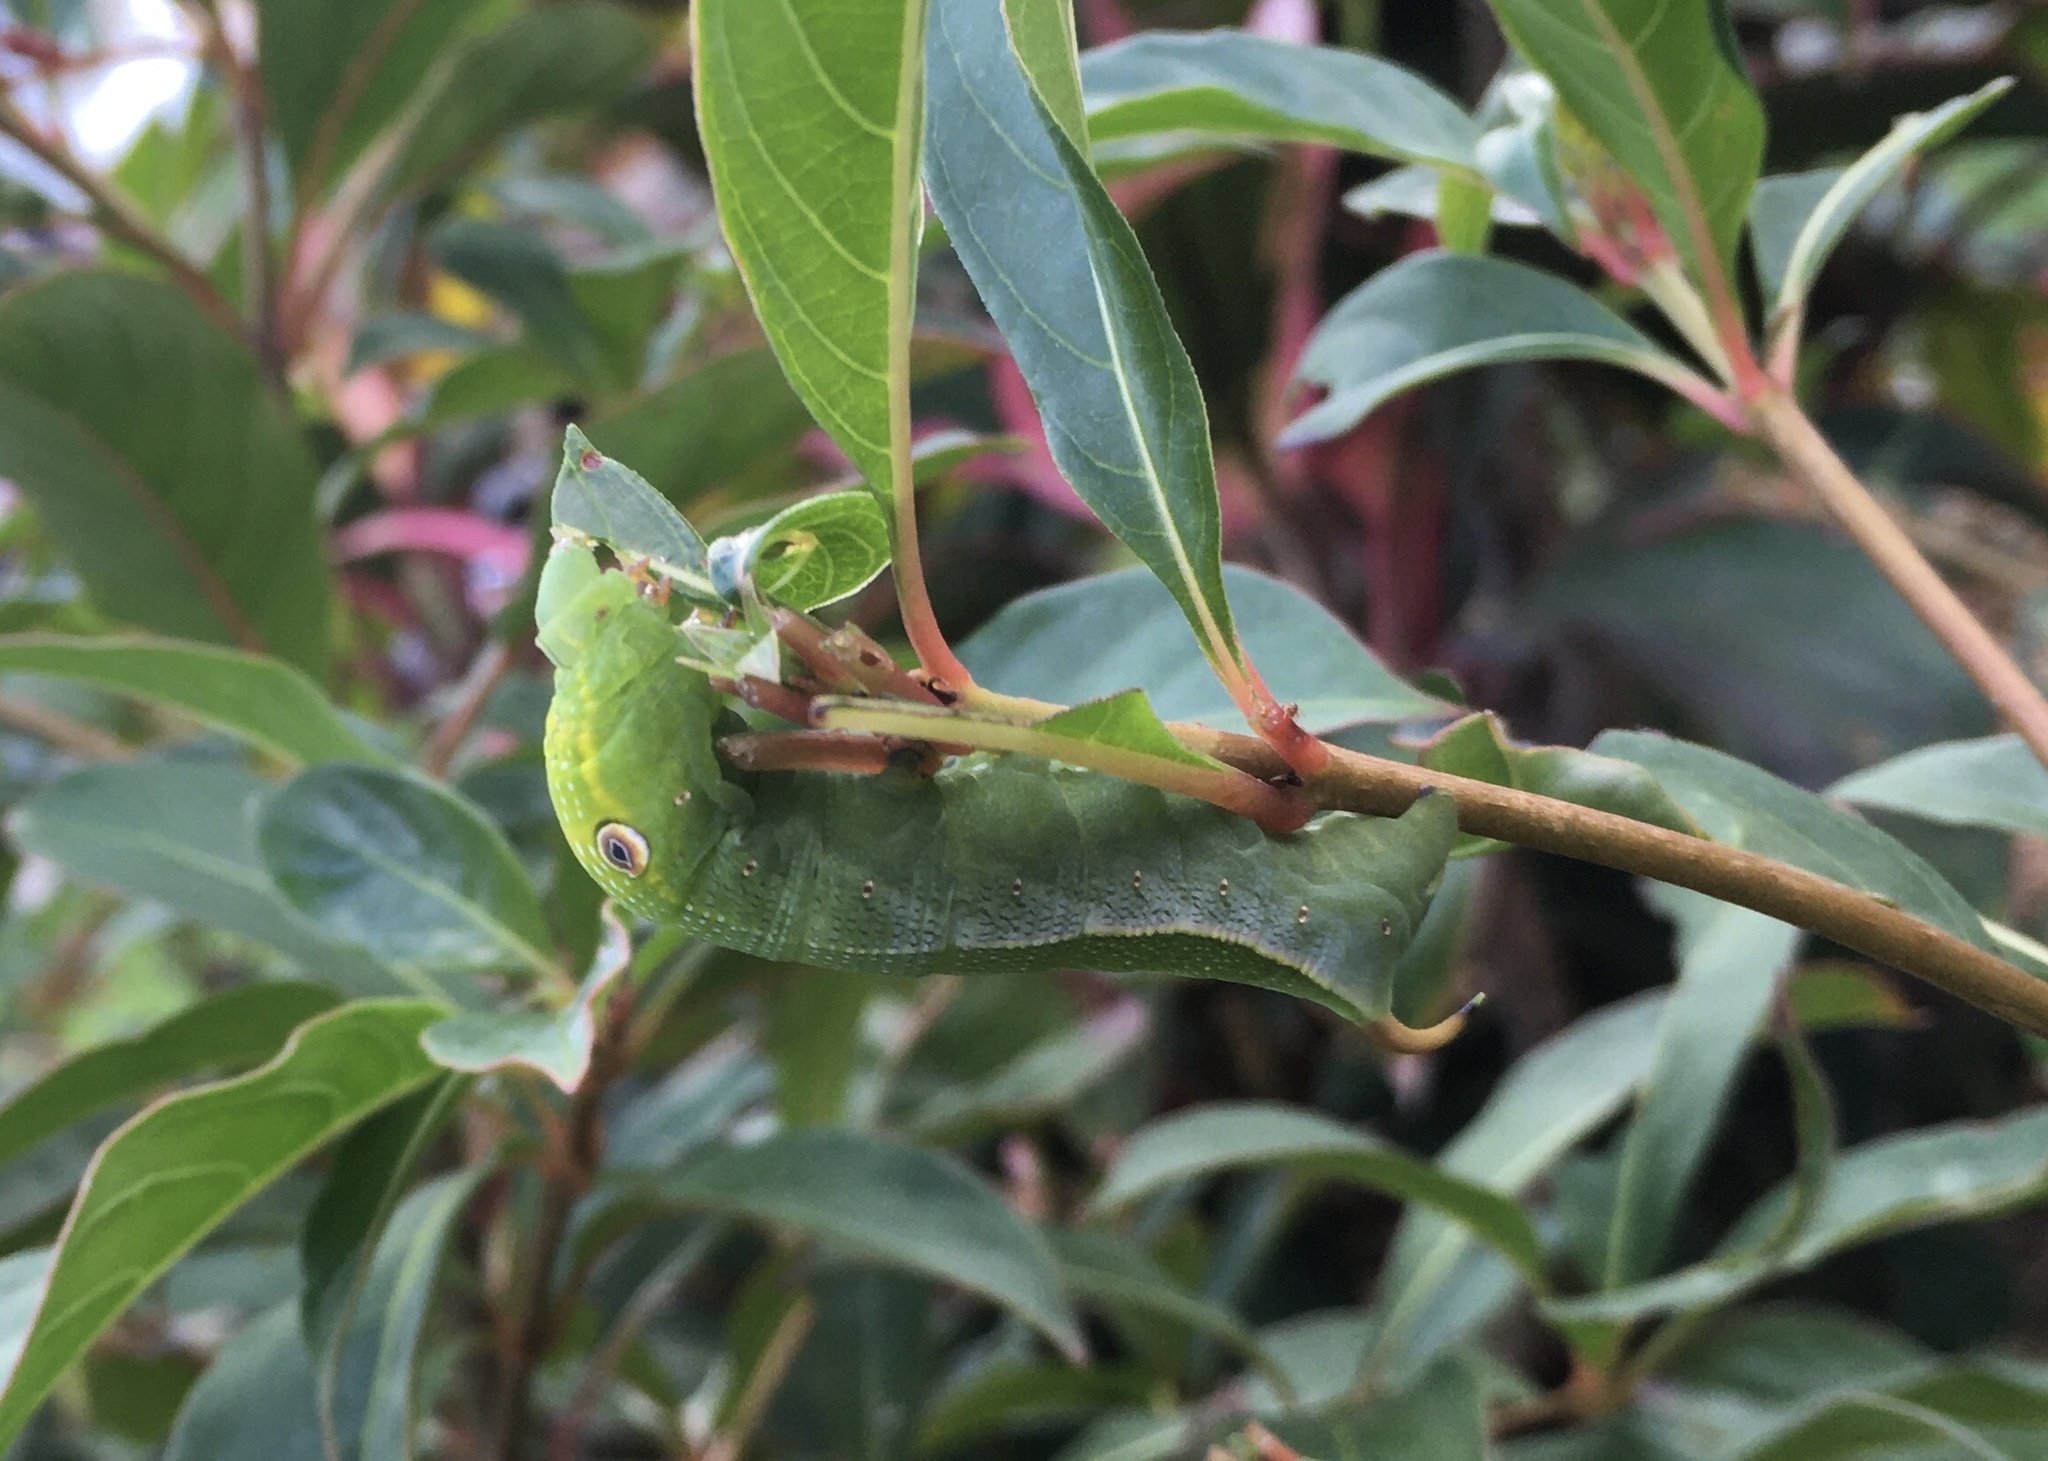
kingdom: Animalia
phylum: Arthropoda
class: Insecta
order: Lepidoptera
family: Sphingidae
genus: Xylophanes
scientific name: Xylophanes pluto
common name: Pluto sphinx
